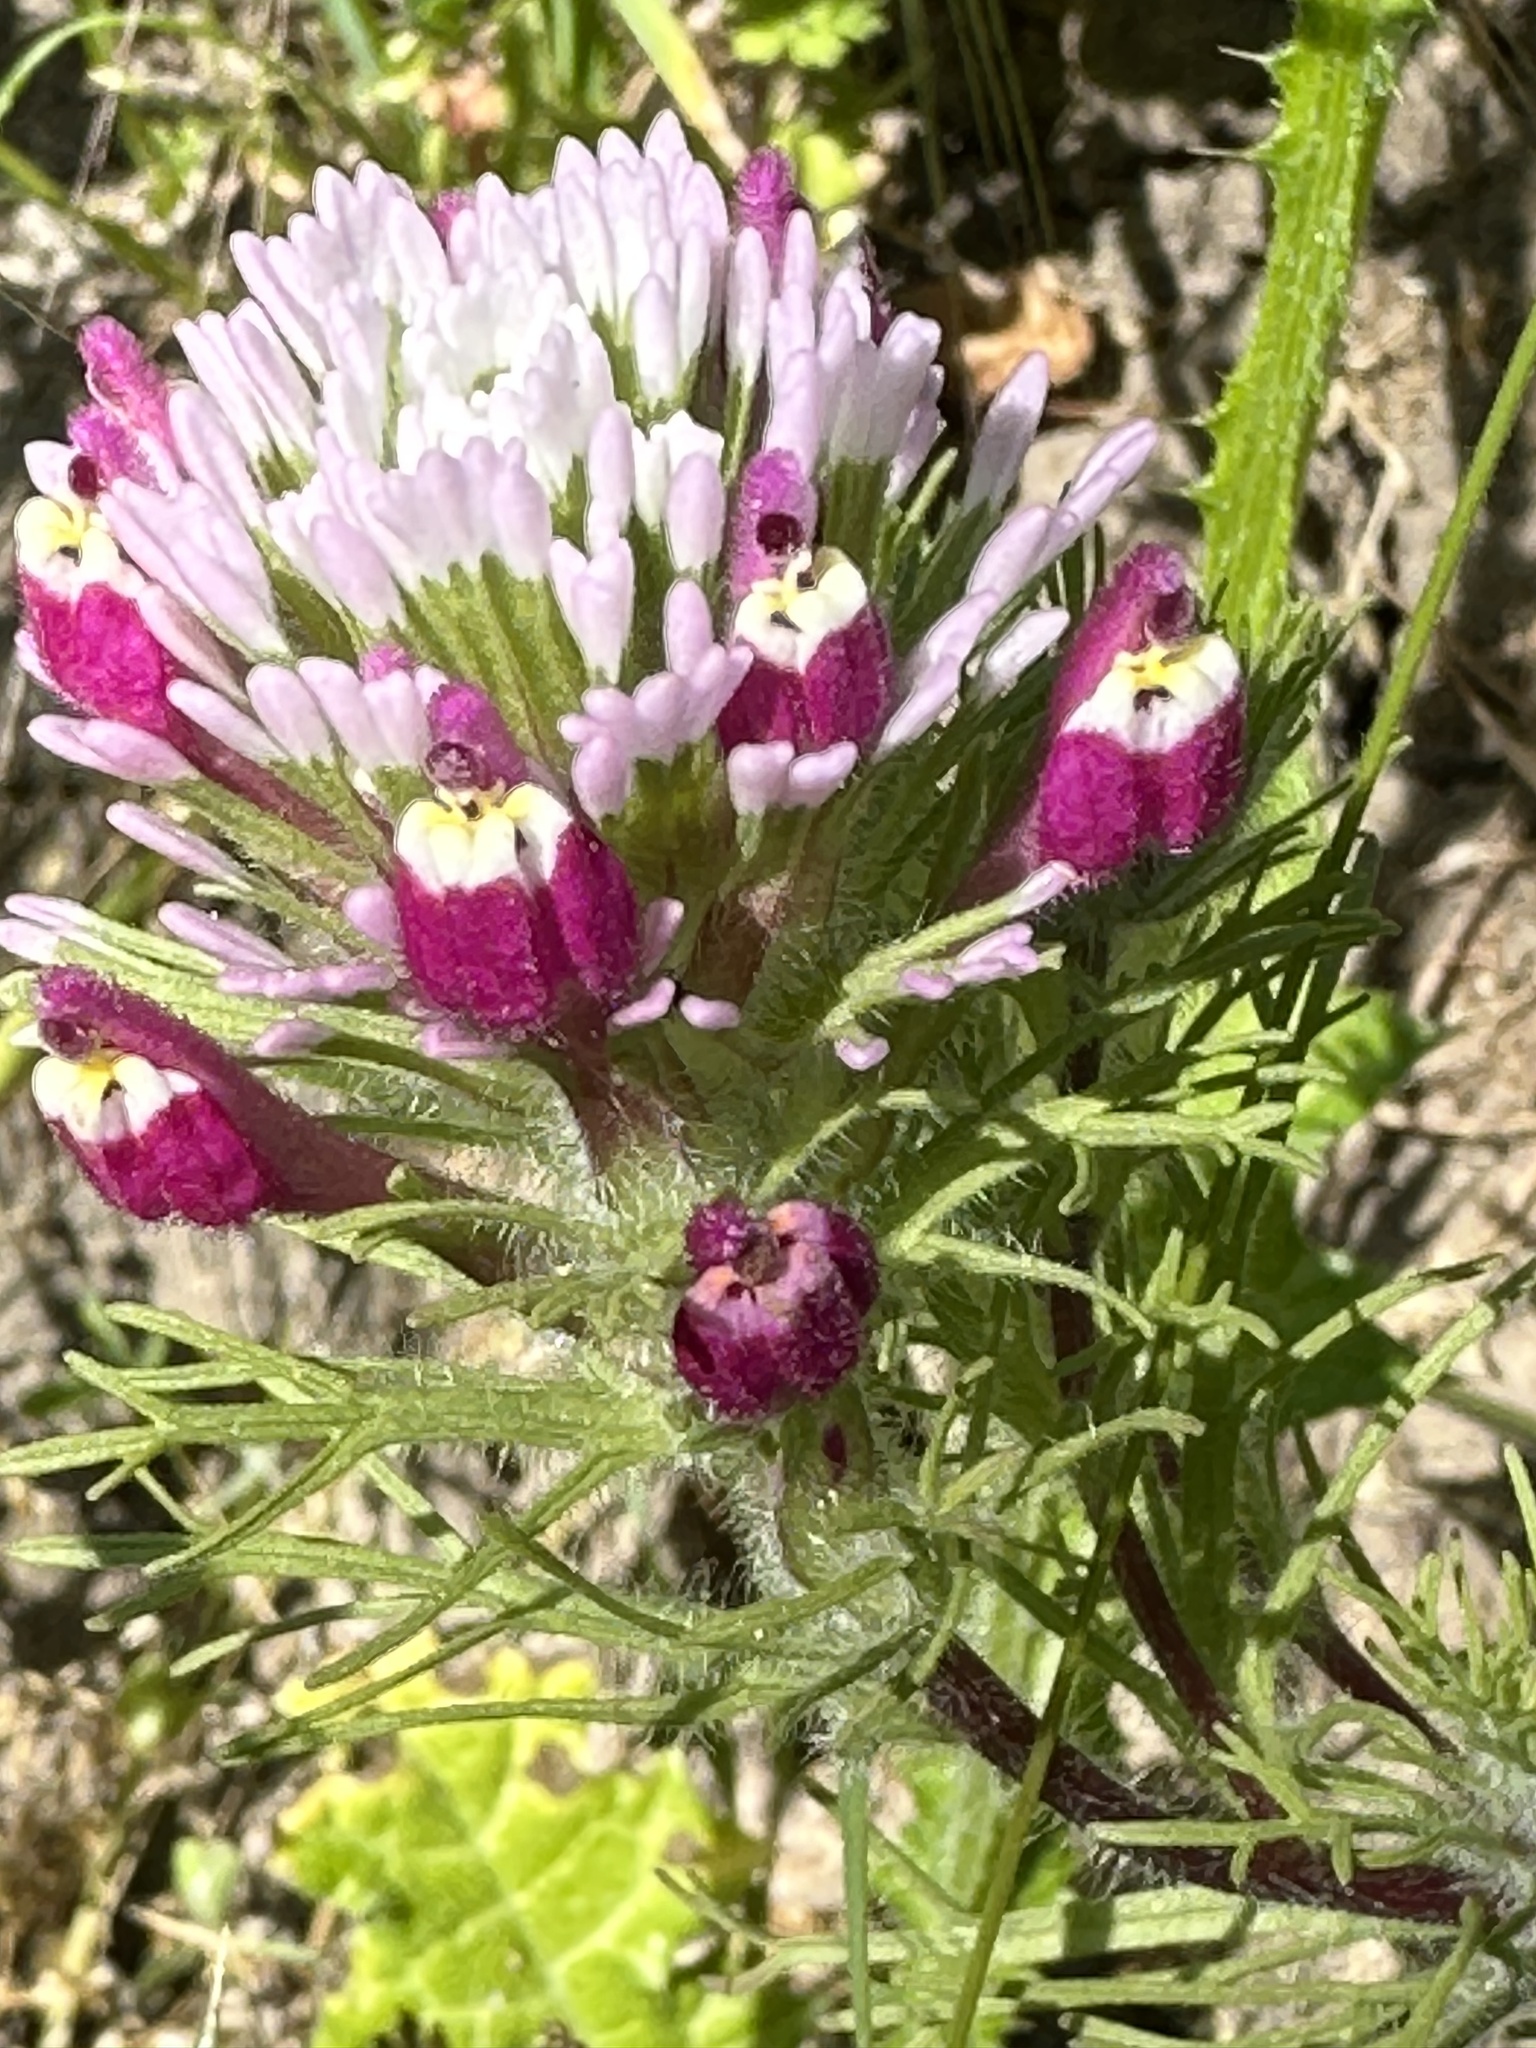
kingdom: Plantae
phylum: Tracheophyta
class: Magnoliopsida
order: Lamiales
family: Orobanchaceae
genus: Castilleja
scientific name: Castilleja exserta
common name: Purple owl-clover
